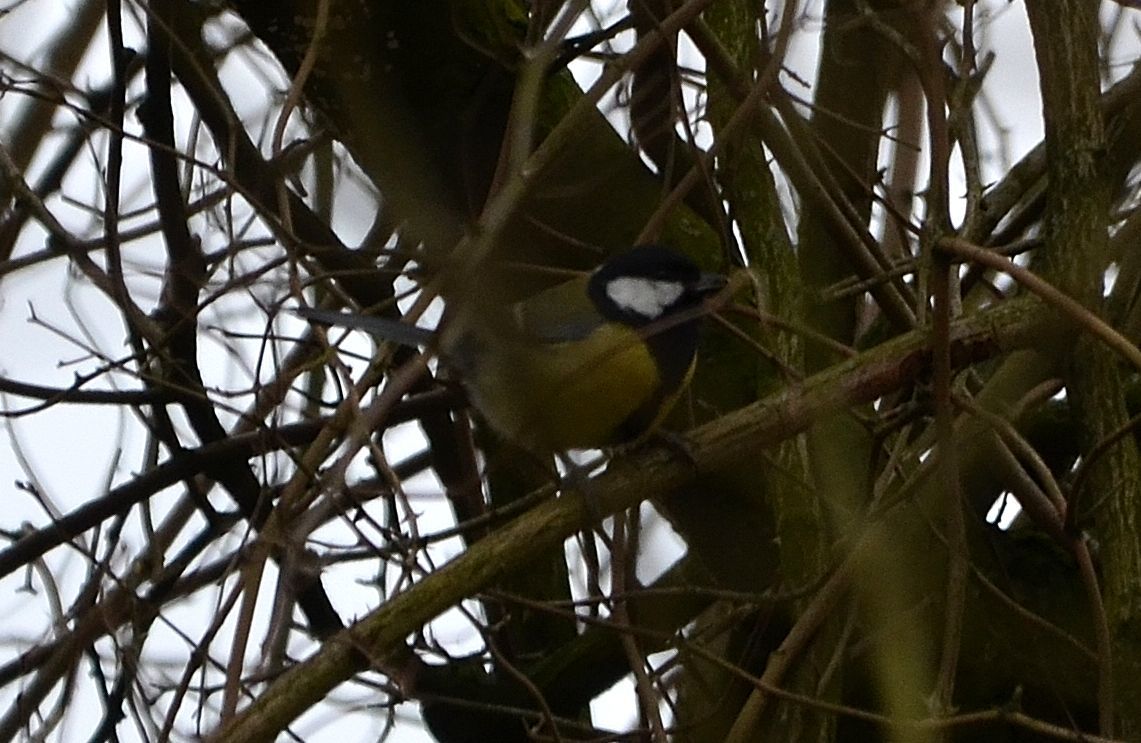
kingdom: Animalia
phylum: Chordata
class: Aves
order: Passeriformes
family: Paridae
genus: Parus
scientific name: Parus major
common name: Great tit
